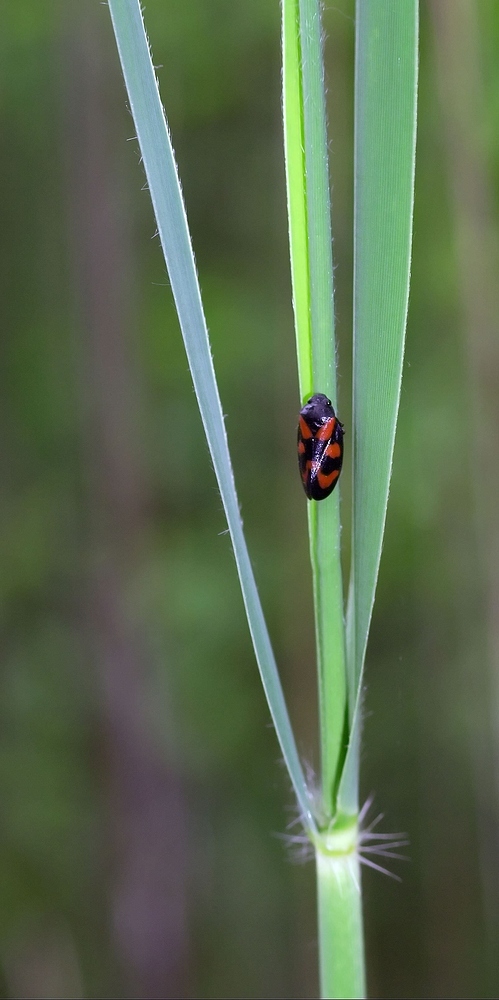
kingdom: Animalia
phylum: Arthropoda
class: Insecta
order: Hemiptera
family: Cercopidae
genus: Cercopis
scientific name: Cercopis vulnerata
